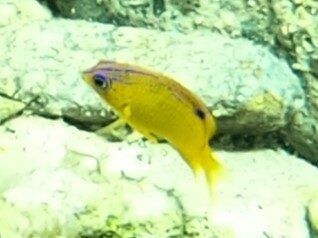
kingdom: Animalia
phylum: Chordata
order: Perciformes
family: Pomacentridae
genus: Stegastes
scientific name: Stegastes diencaeus
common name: Longfin damselfish
